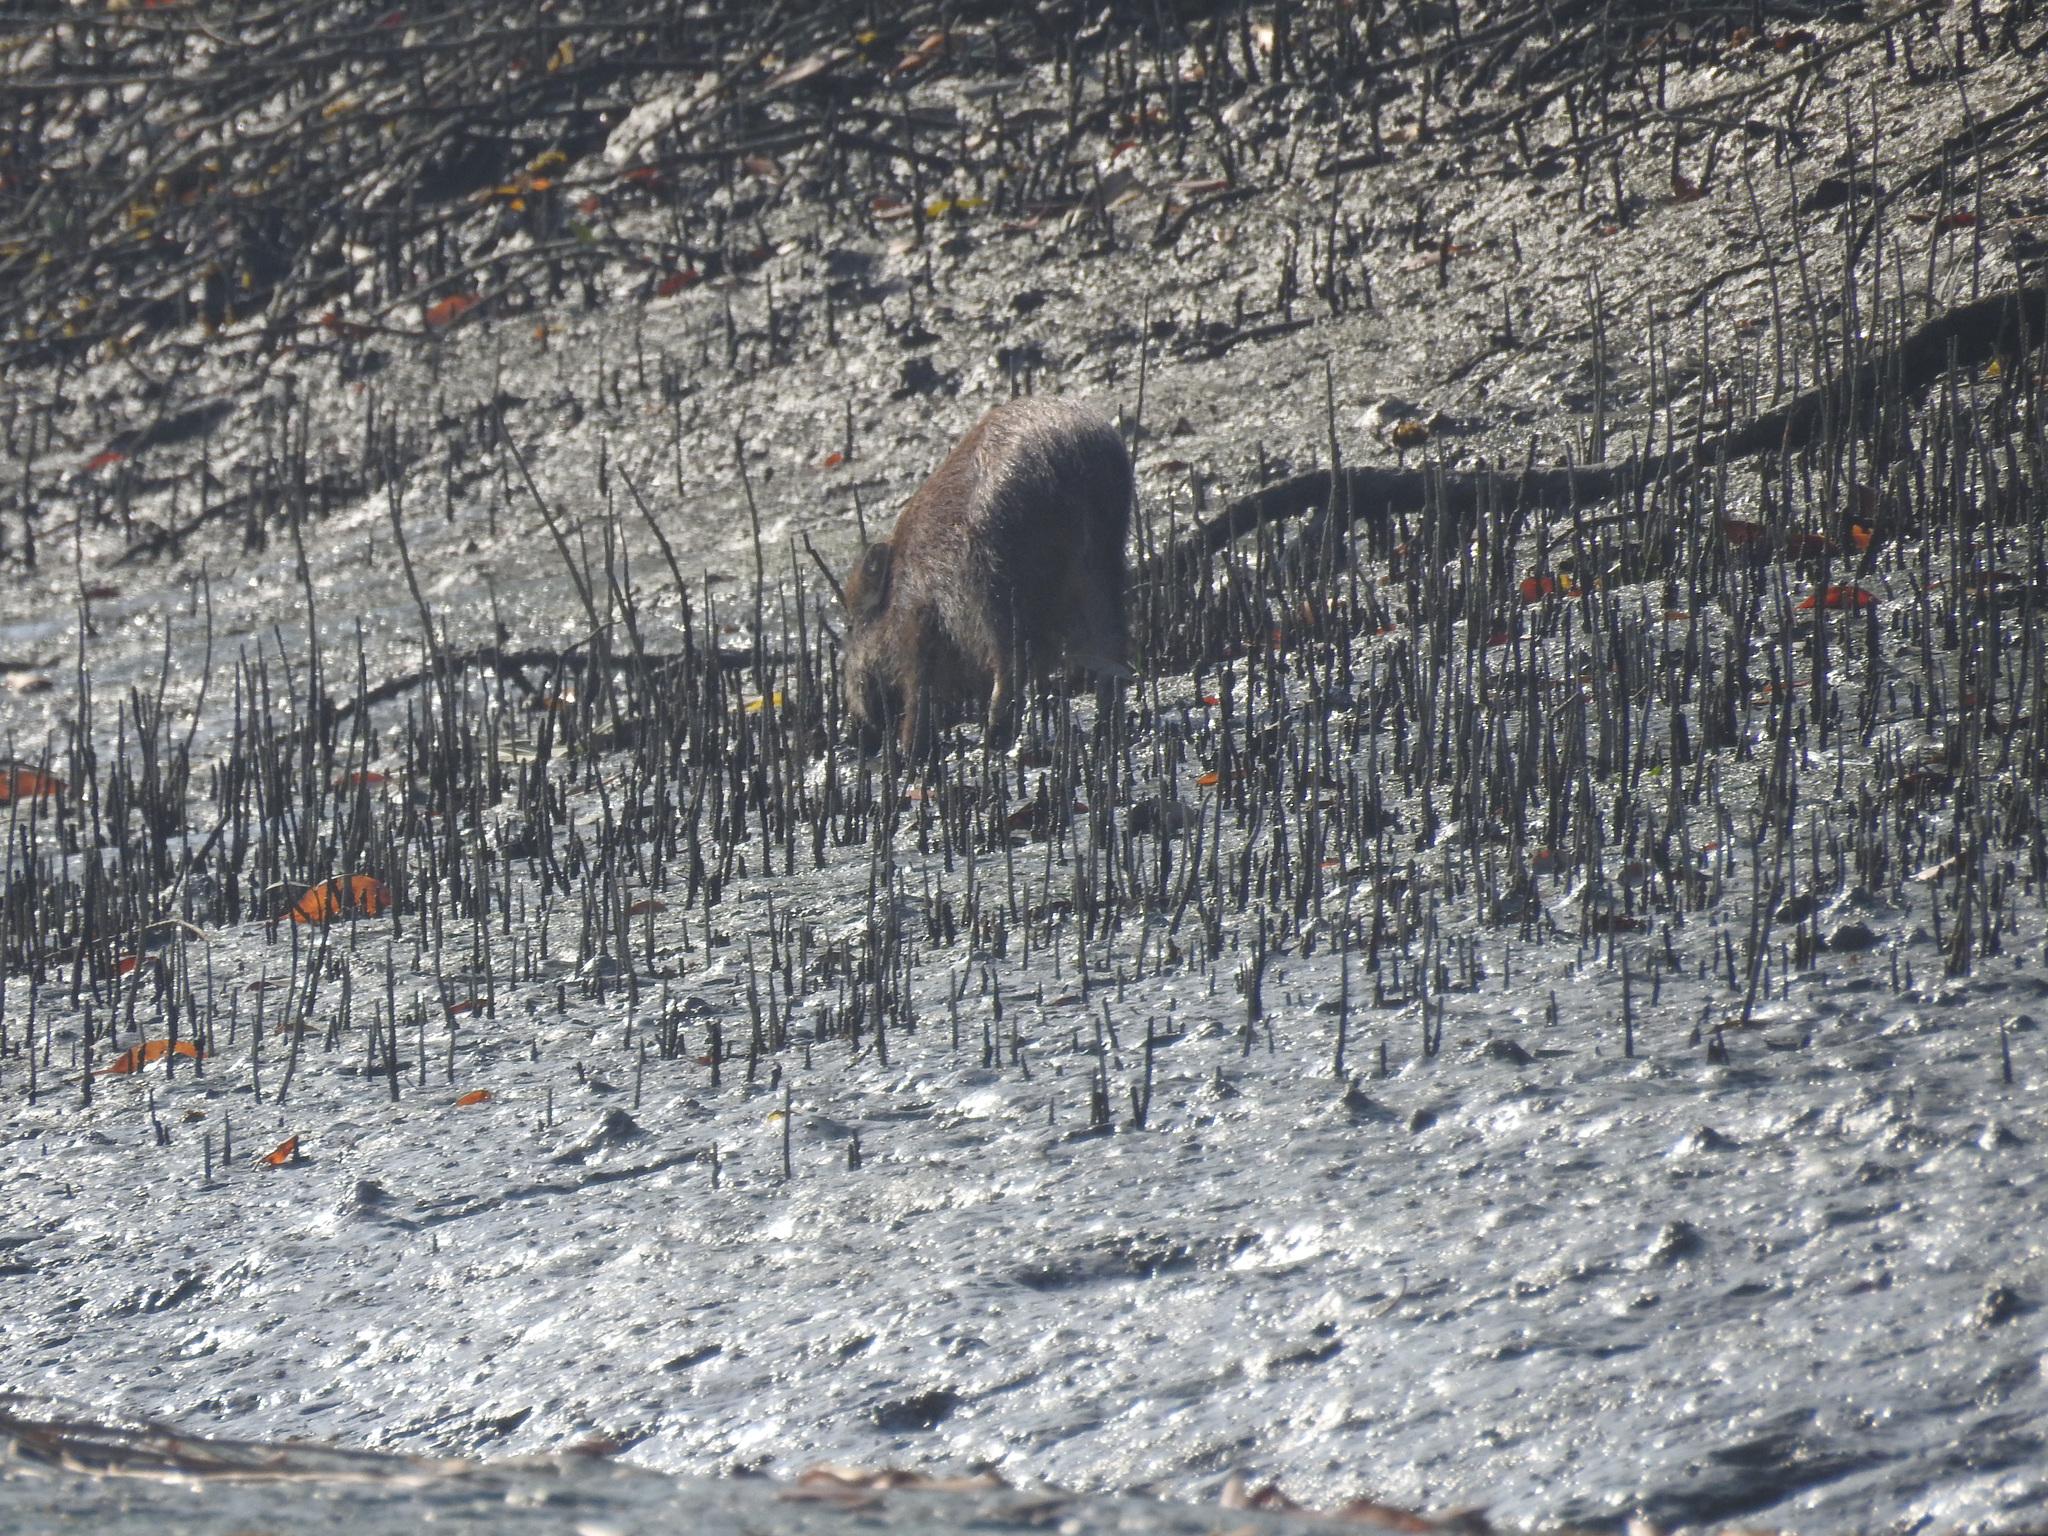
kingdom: Animalia
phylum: Chordata
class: Mammalia
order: Artiodactyla
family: Suidae
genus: Sus
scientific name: Sus scrofa
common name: Wild boar
